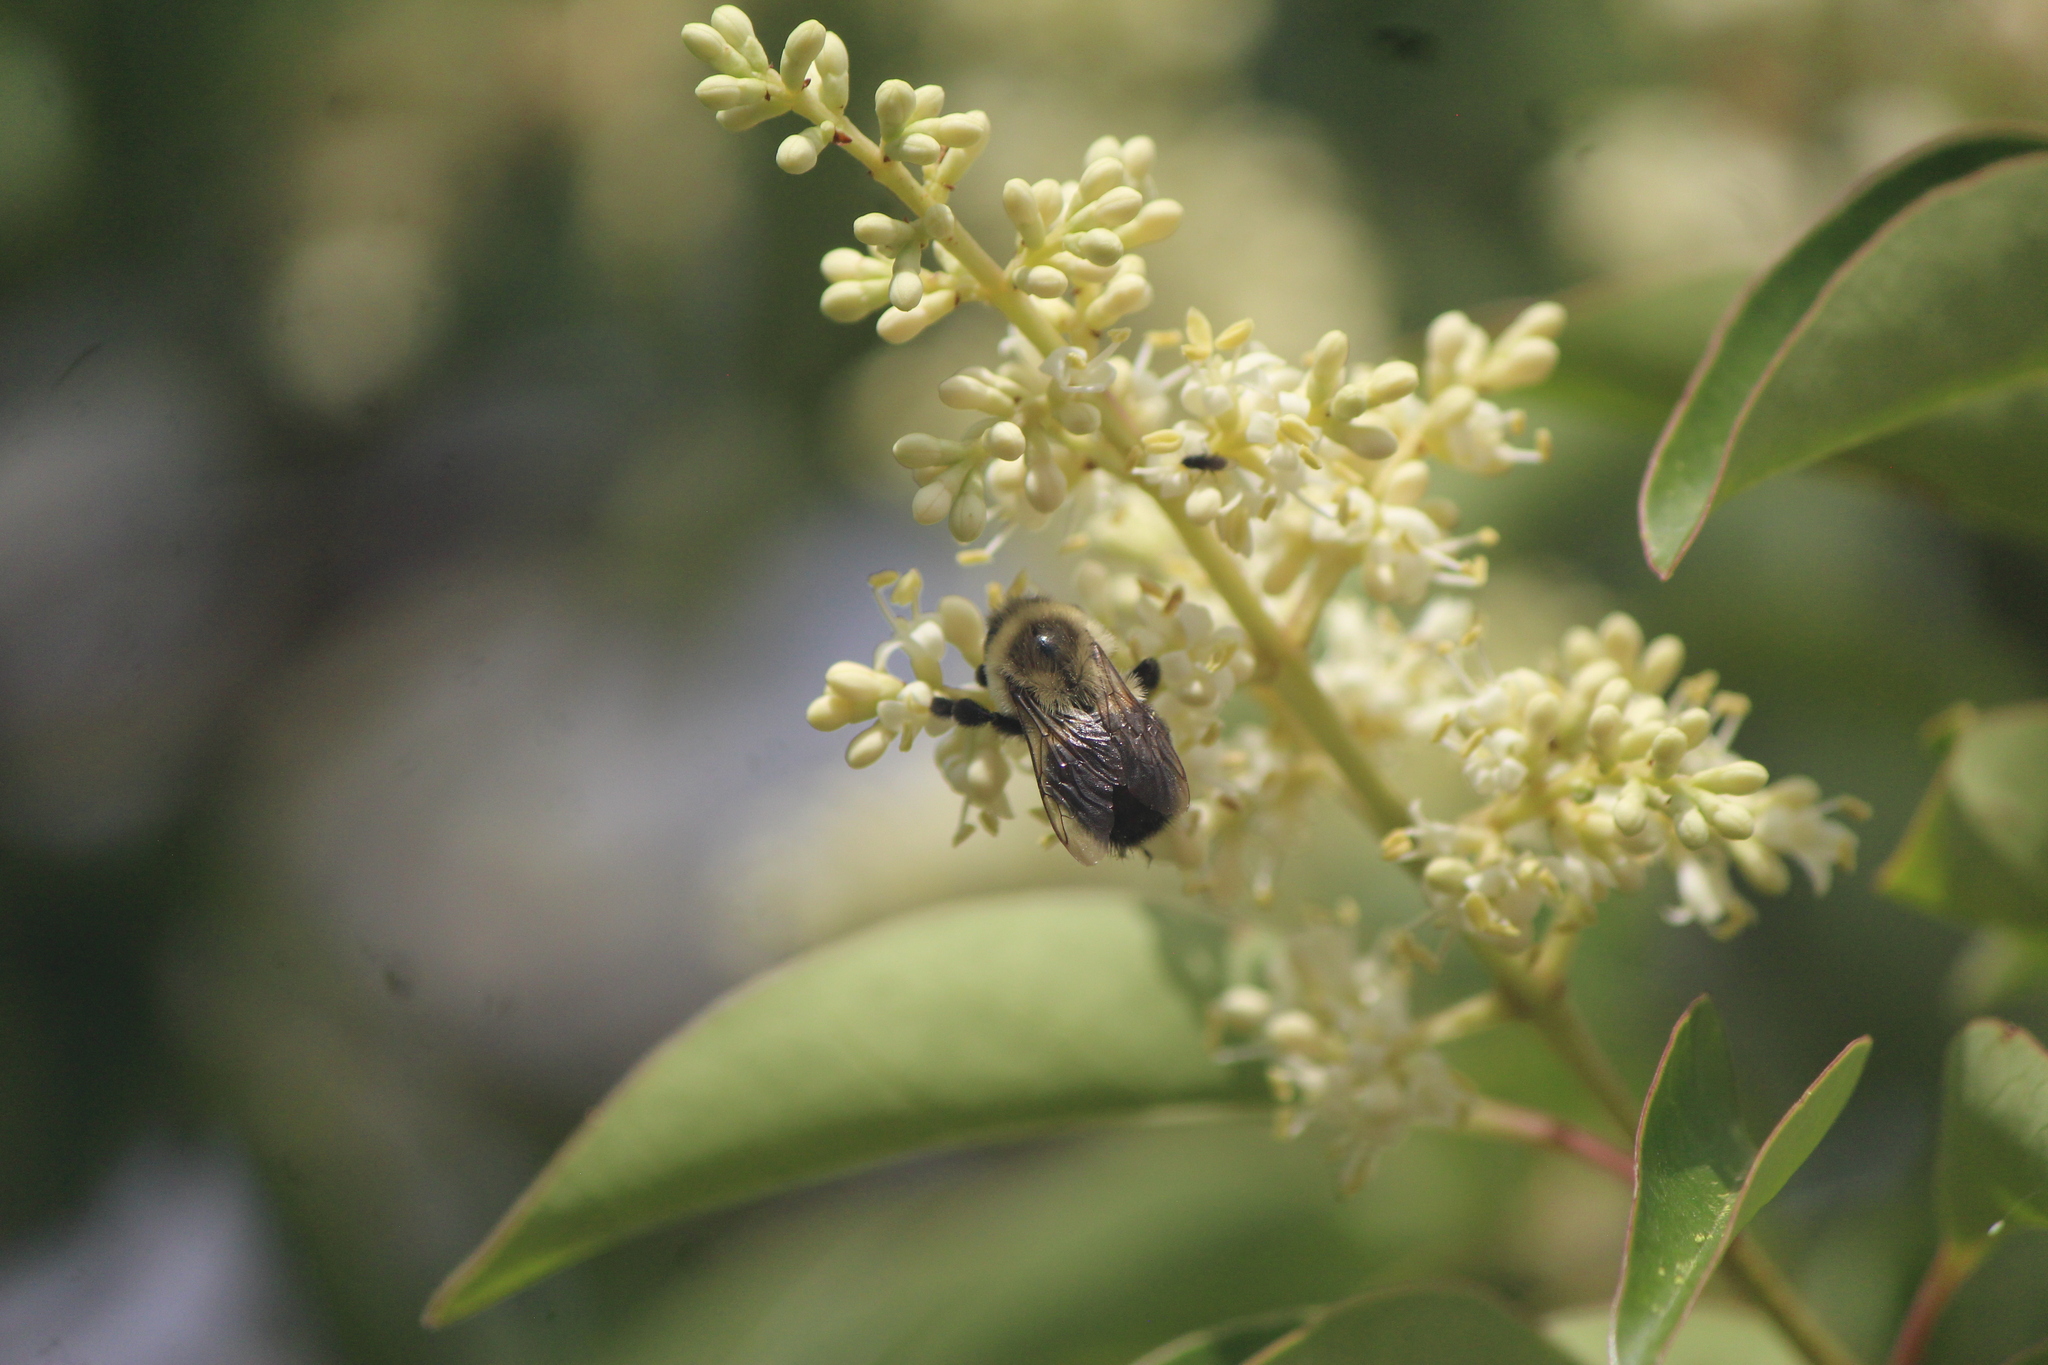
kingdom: Animalia
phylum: Arthropoda
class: Insecta
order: Hymenoptera
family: Apidae
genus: Bombus
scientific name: Bombus impatiens
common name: Common eastern bumble bee
